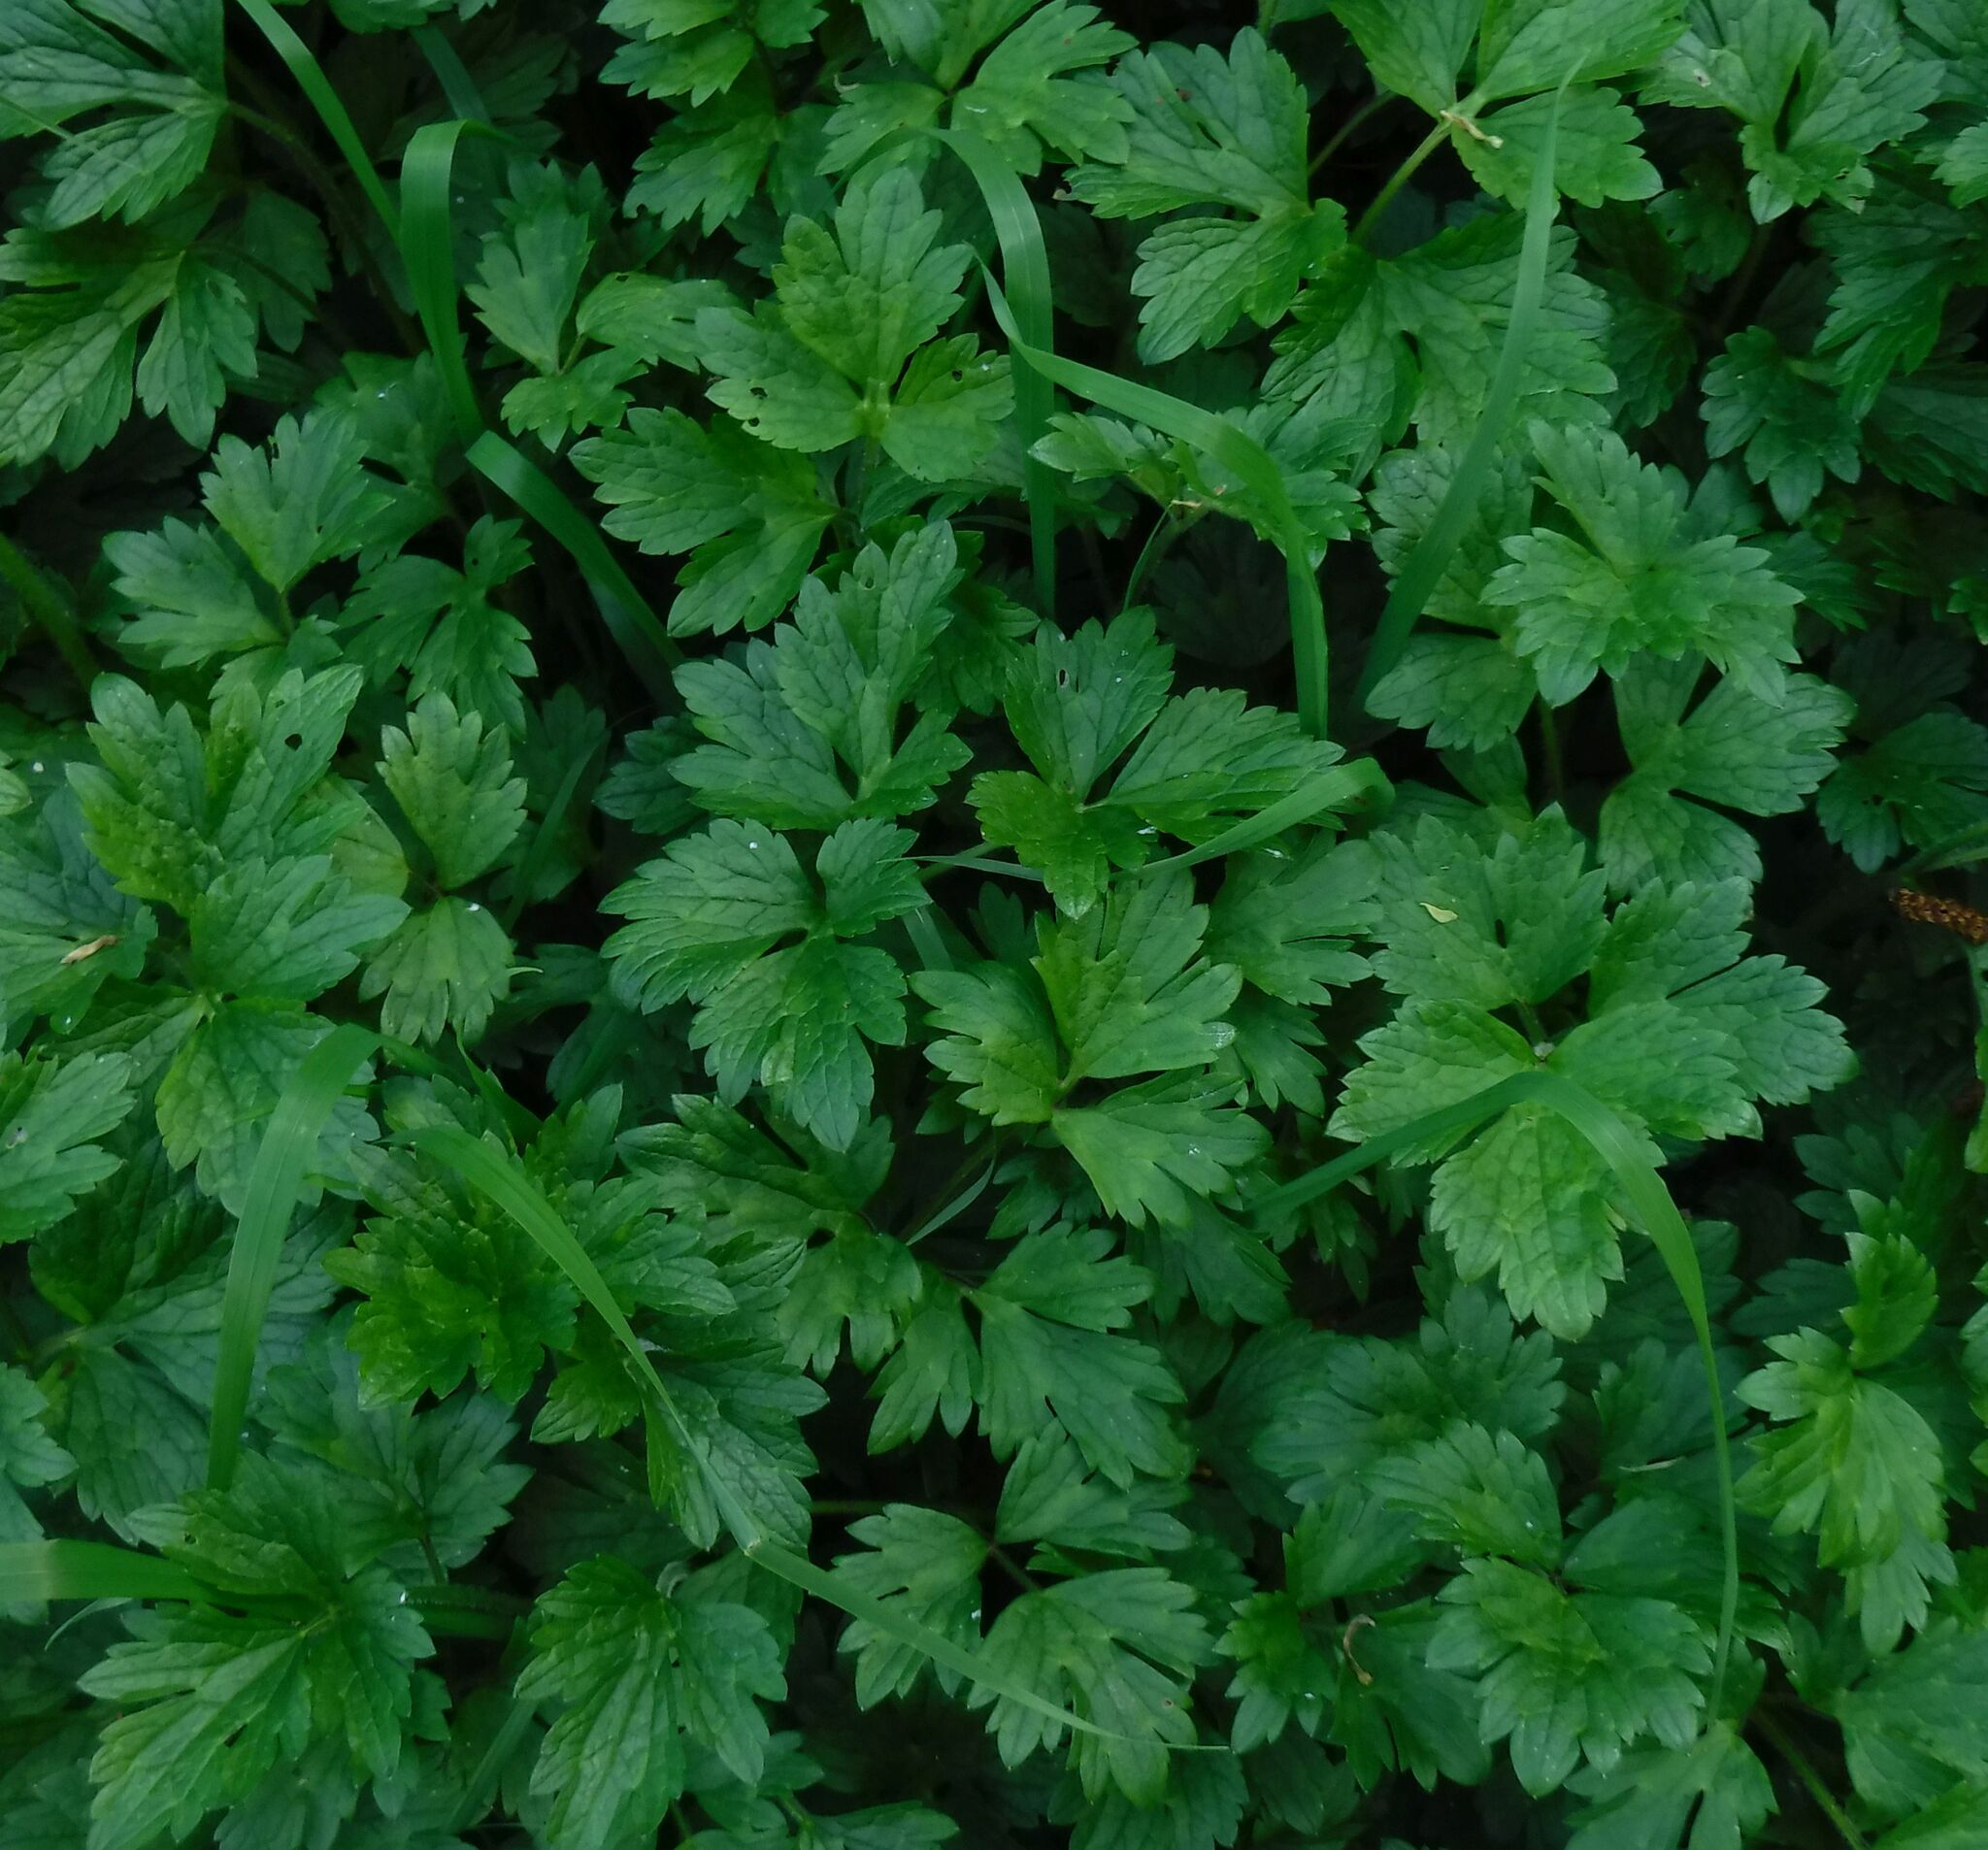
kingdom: Plantae
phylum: Tracheophyta
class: Magnoliopsida
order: Ranunculales
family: Ranunculaceae
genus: Ranunculus
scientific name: Ranunculus repens
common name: Creeping buttercup
